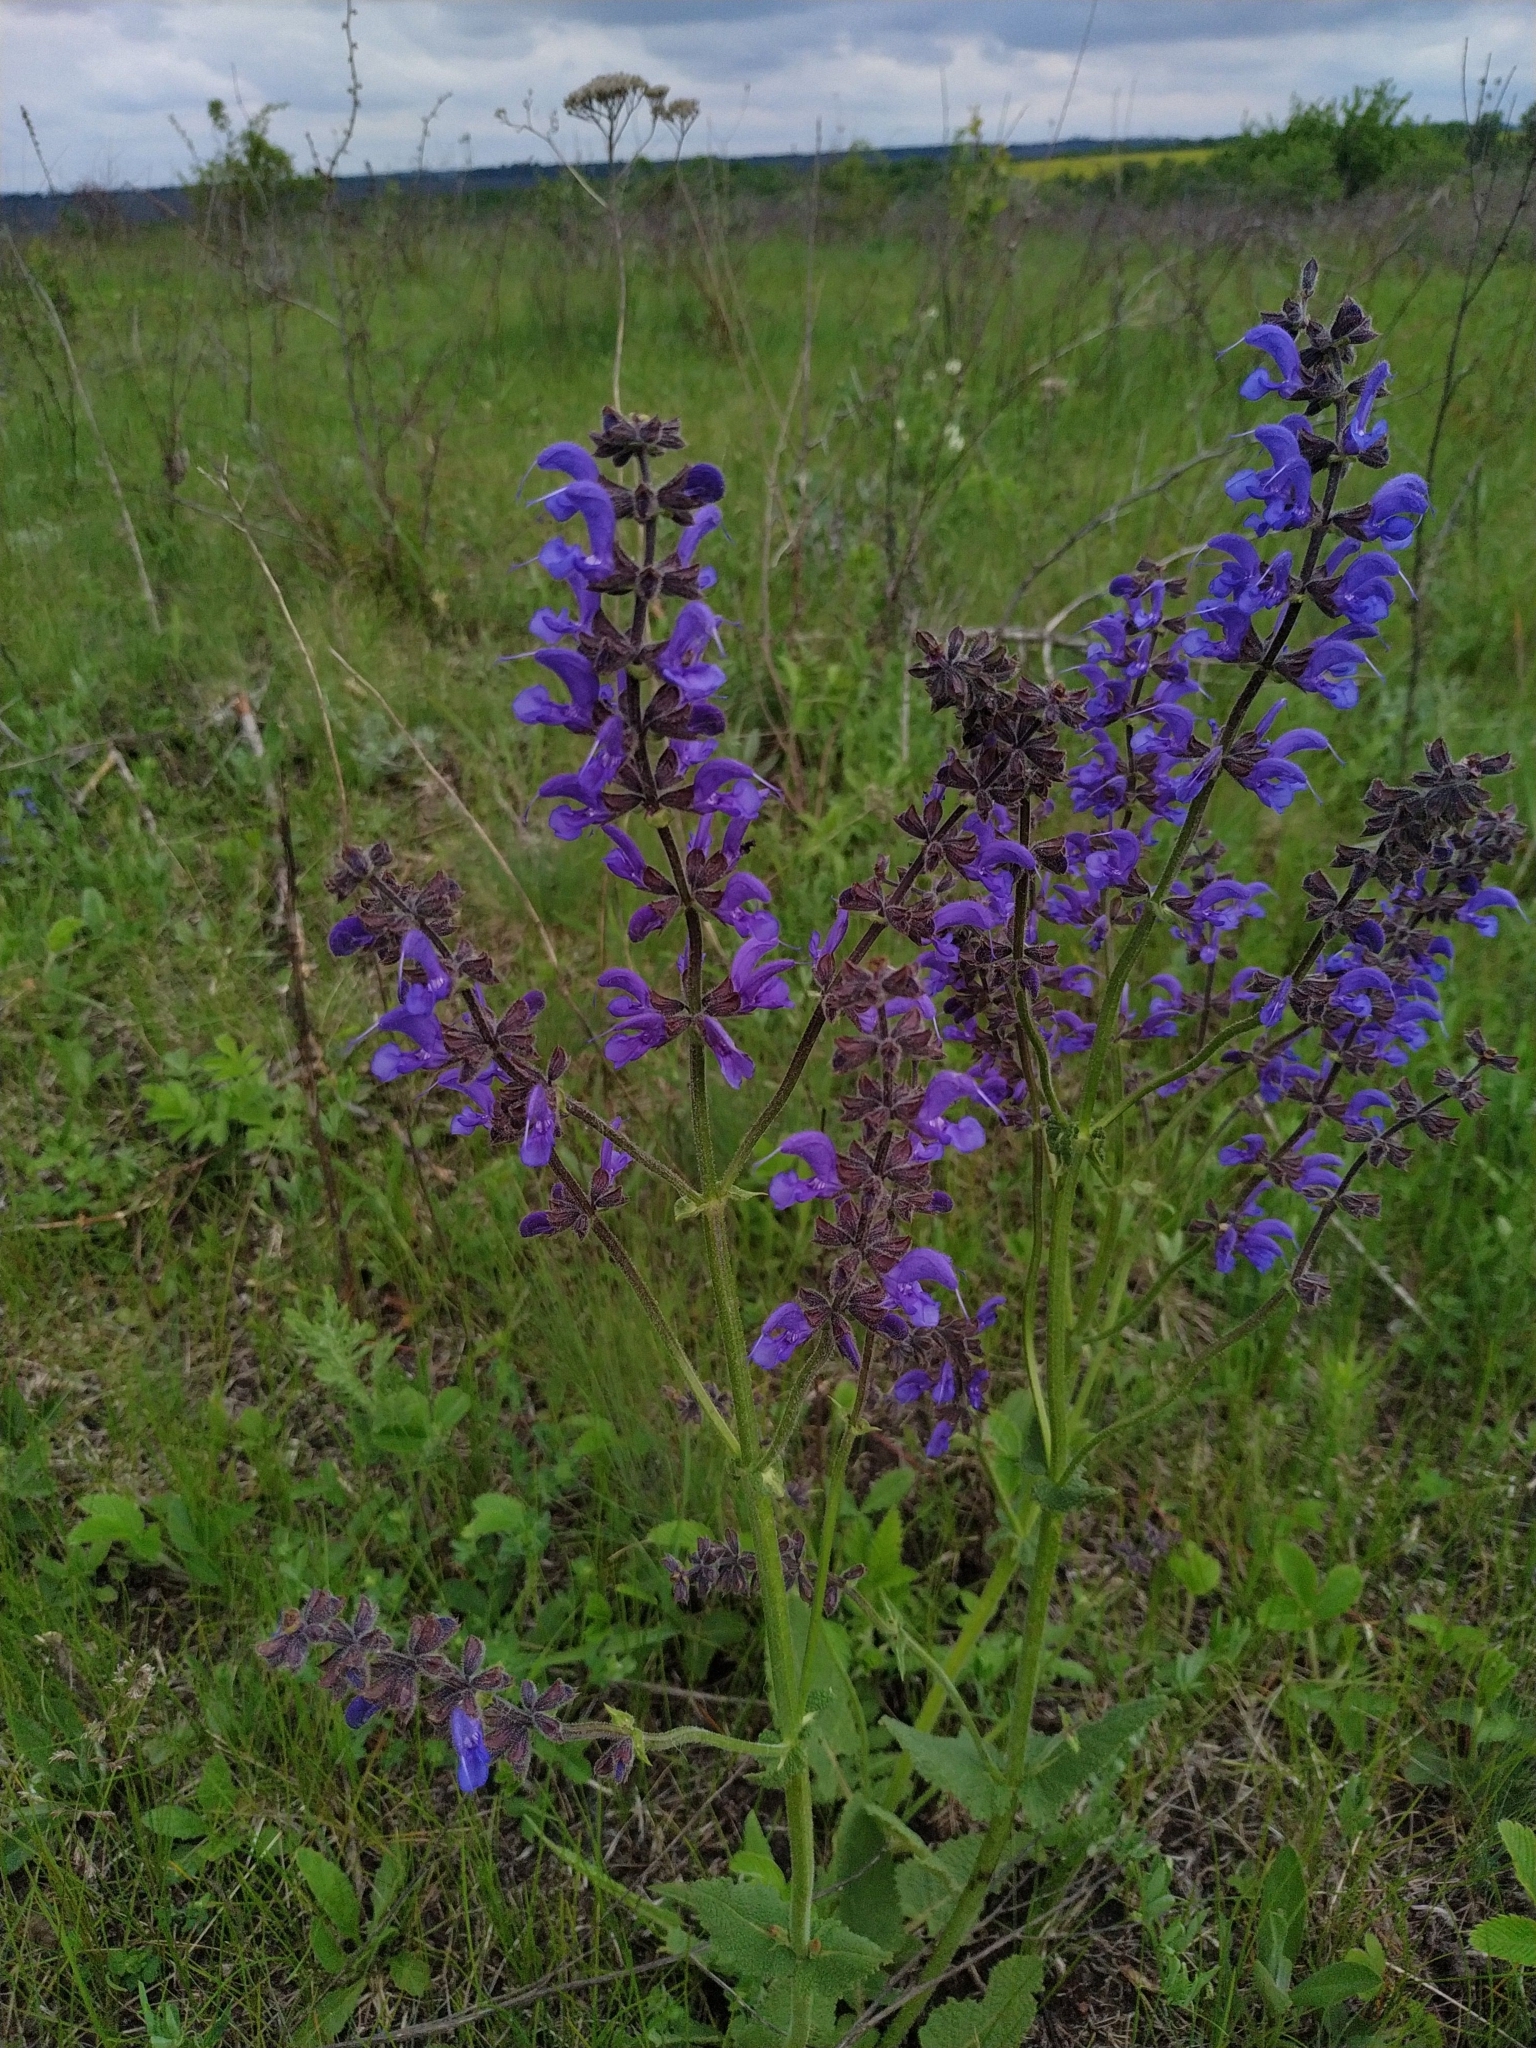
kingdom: Plantae
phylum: Tracheophyta
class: Magnoliopsida
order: Lamiales
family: Lamiaceae
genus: Salvia
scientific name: Salvia pratensis
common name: Meadow sage
